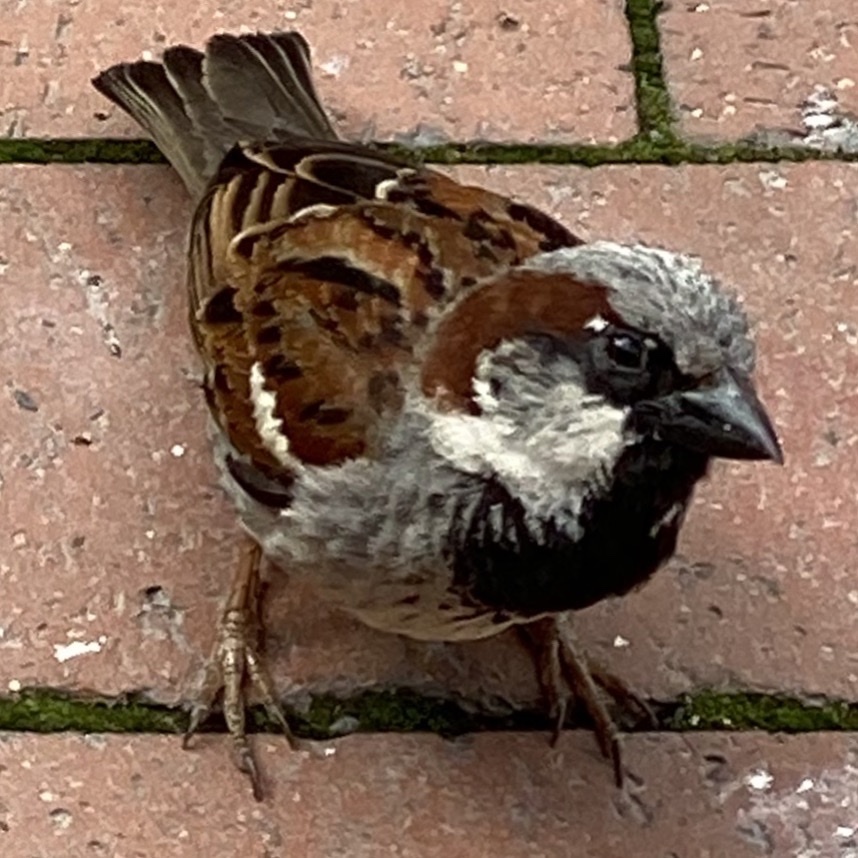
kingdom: Animalia
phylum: Chordata
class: Aves
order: Passeriformes
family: Passeridae
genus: Passer
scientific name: Passer domesticus
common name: House sparrow
